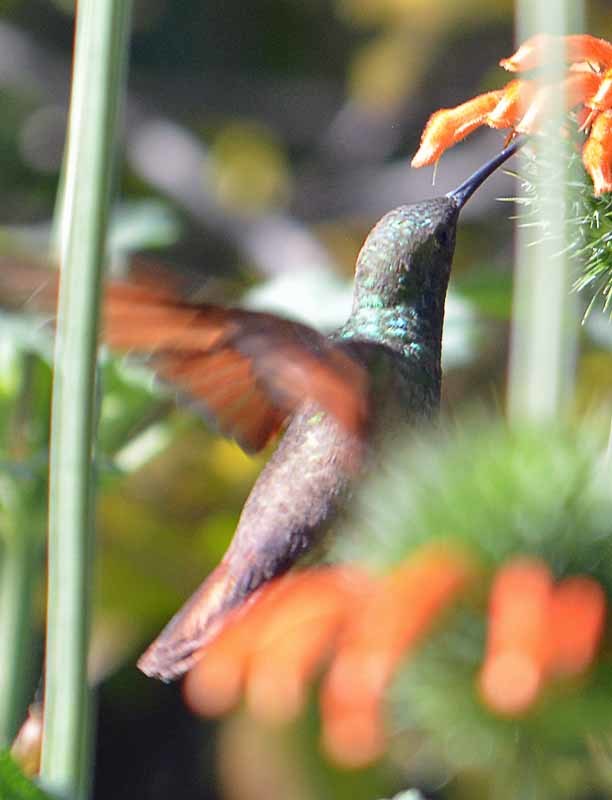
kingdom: Animalia
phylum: Chordata
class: Aves
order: Apodiformes
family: Trochilidae
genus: Saucerottia
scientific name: Saucerottia beryllina
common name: Berylline hummingbird
